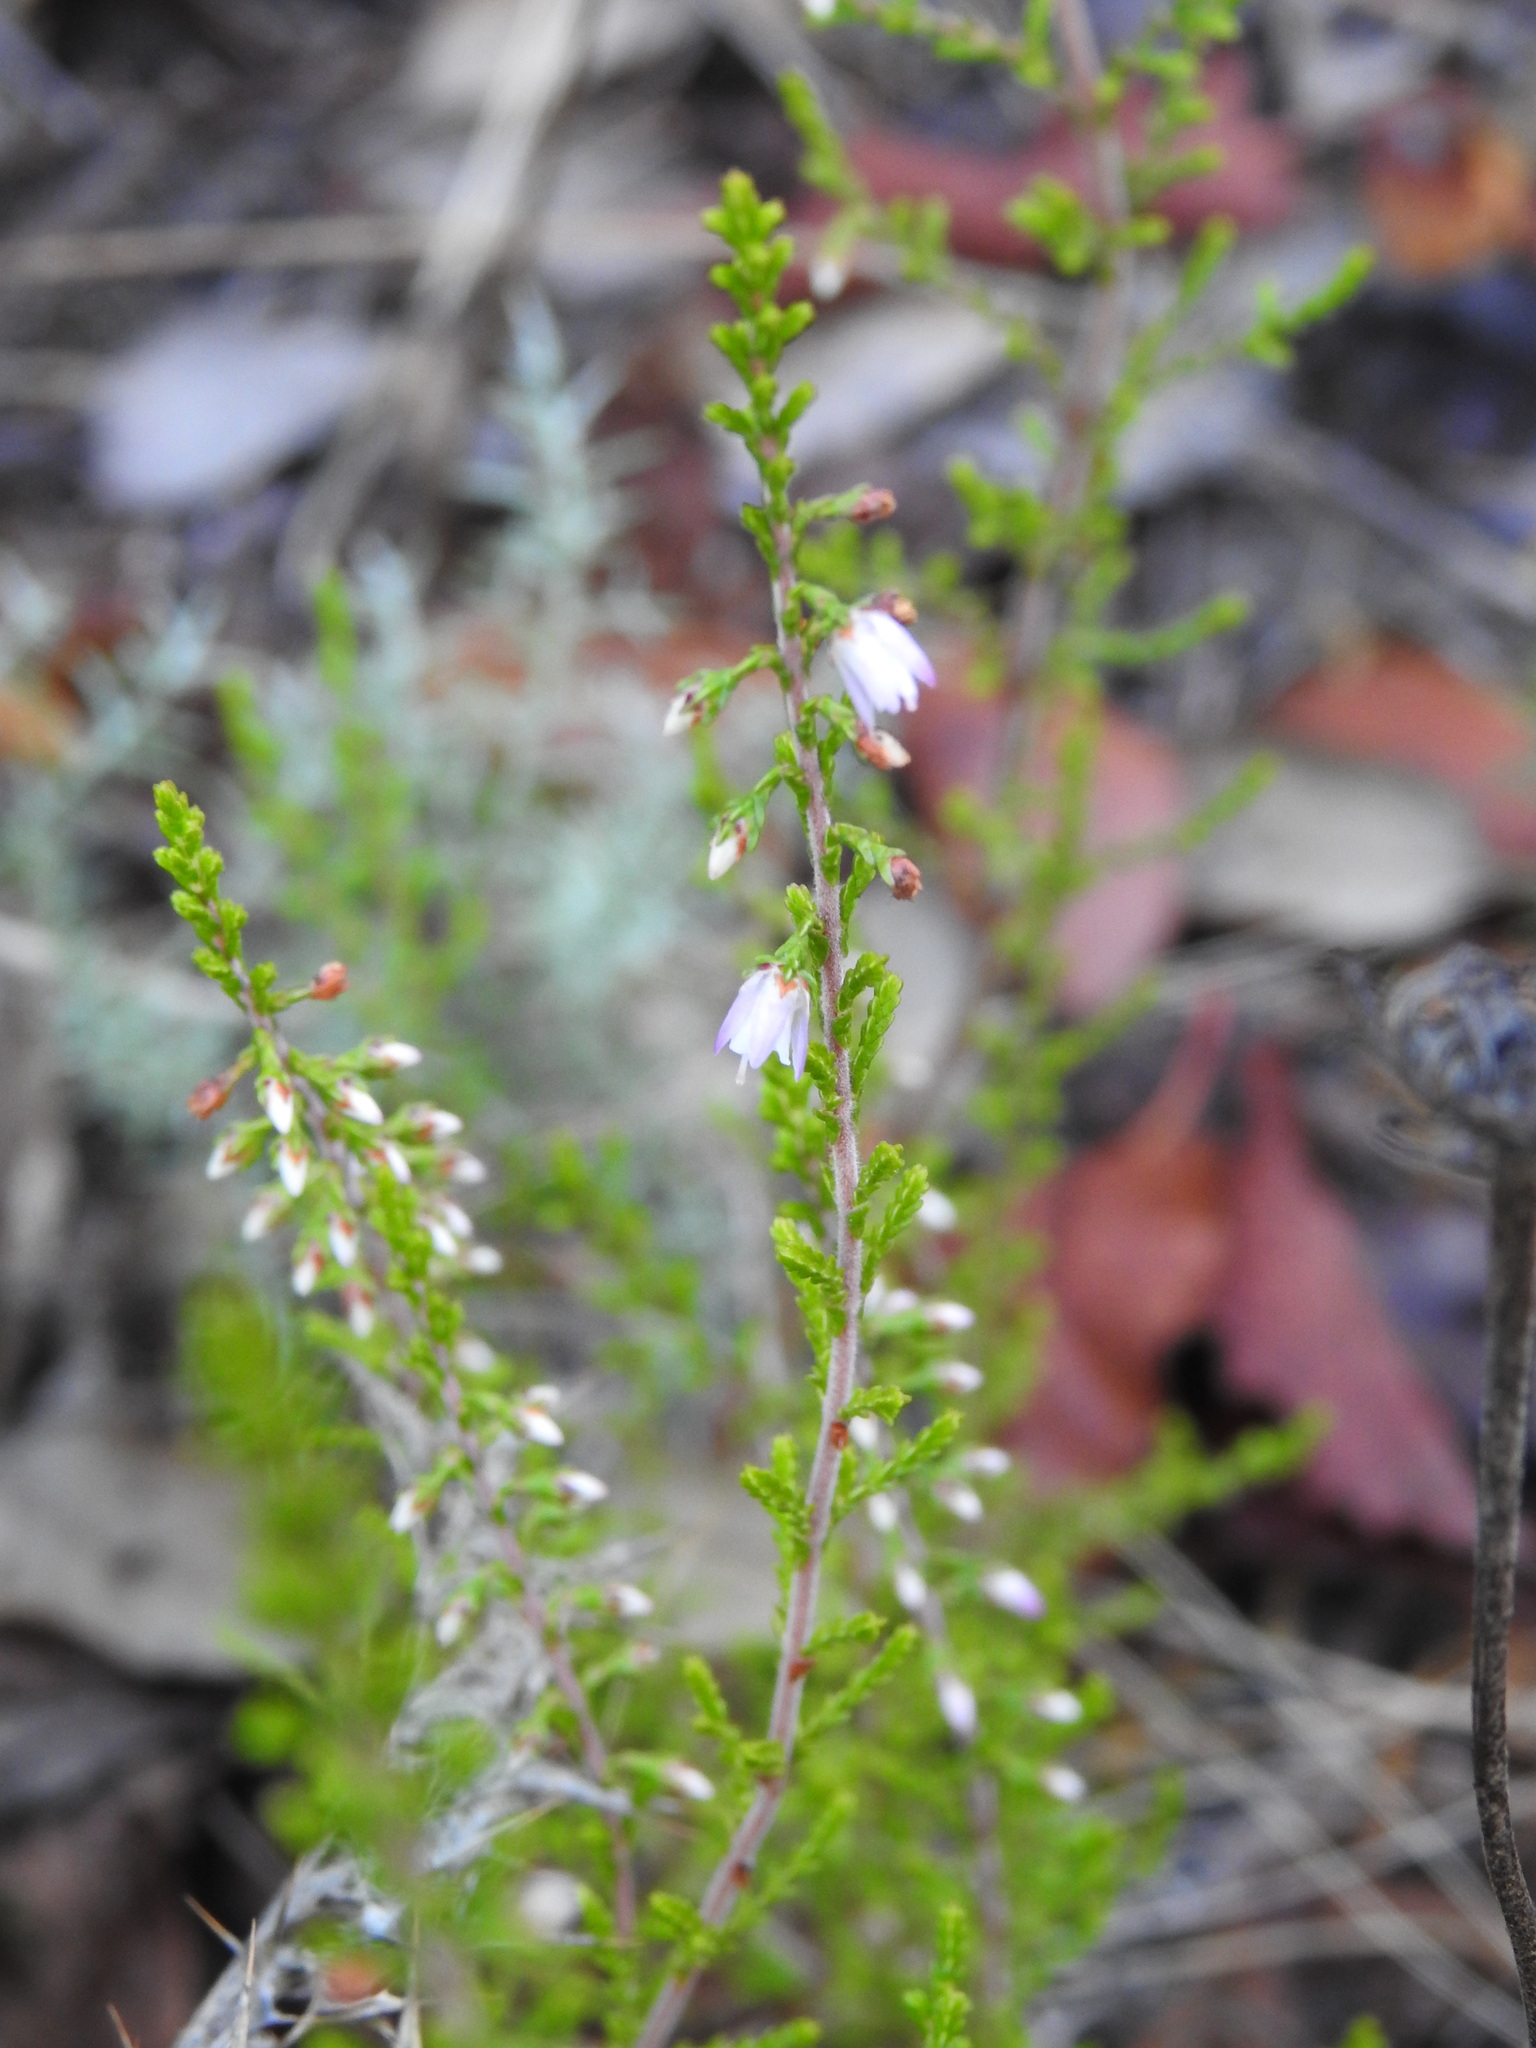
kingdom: Plantae
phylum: Tracheophyta
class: Magnoliopsida
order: Ericales
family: Ericaceae
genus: Calluna
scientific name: Calluna vulgaris
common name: Heather
